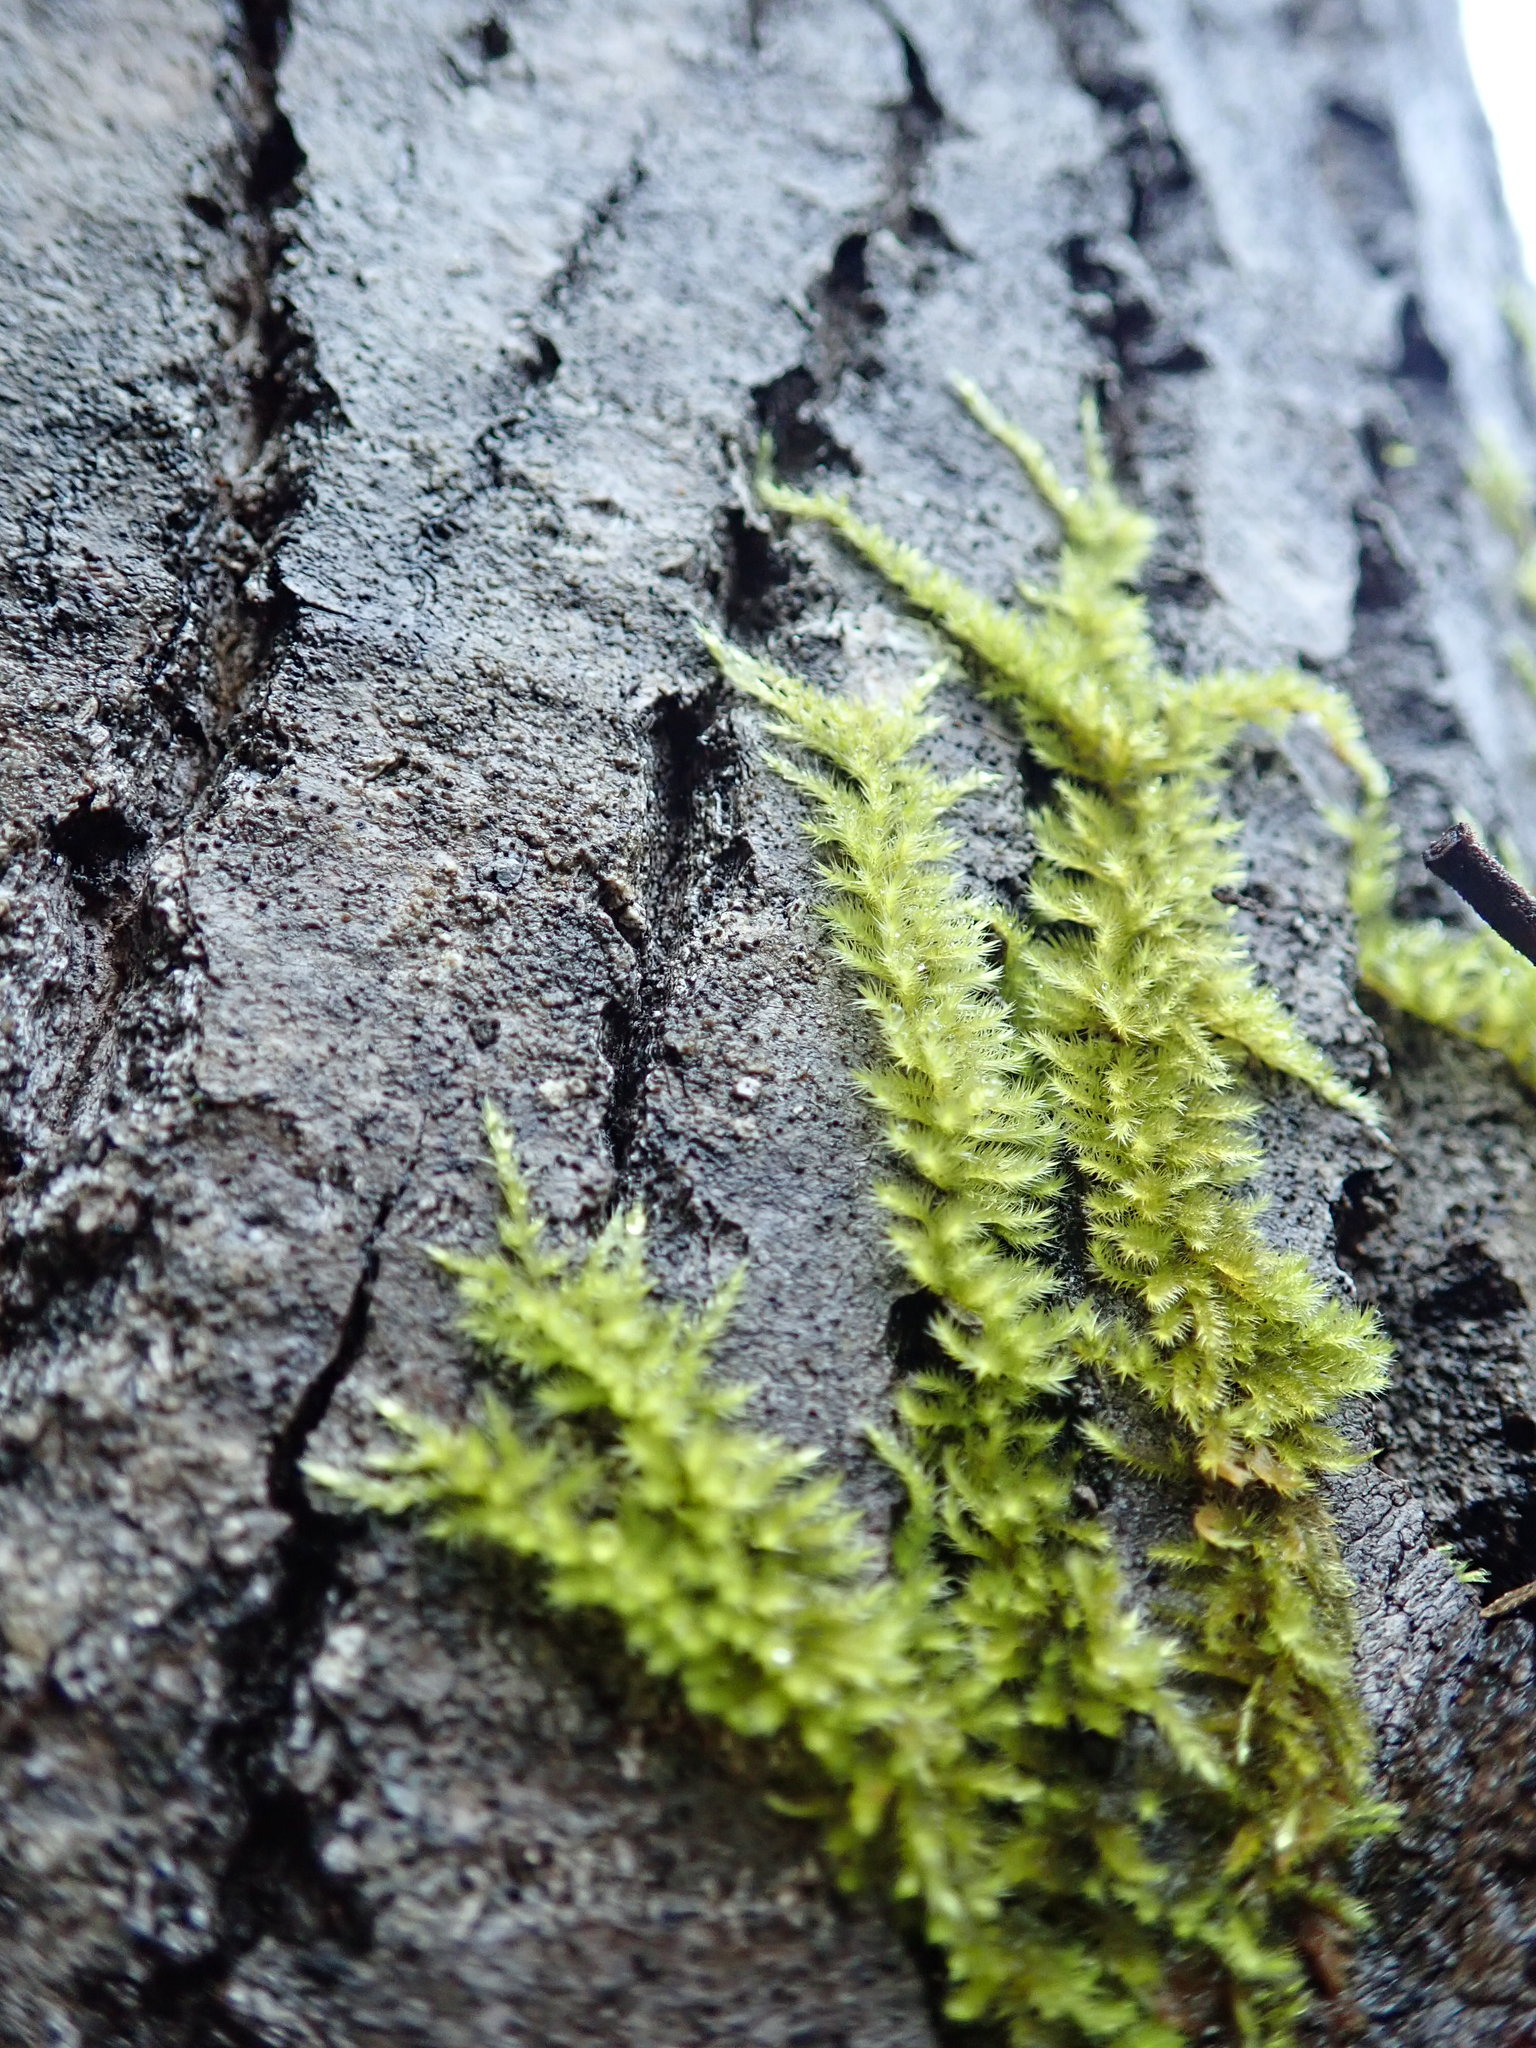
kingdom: Plantae
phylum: Bryophyta
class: Bryopsida
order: Hypnales
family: Brachytheciaceae
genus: Homalothecium
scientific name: Homalothecium nuttallii
